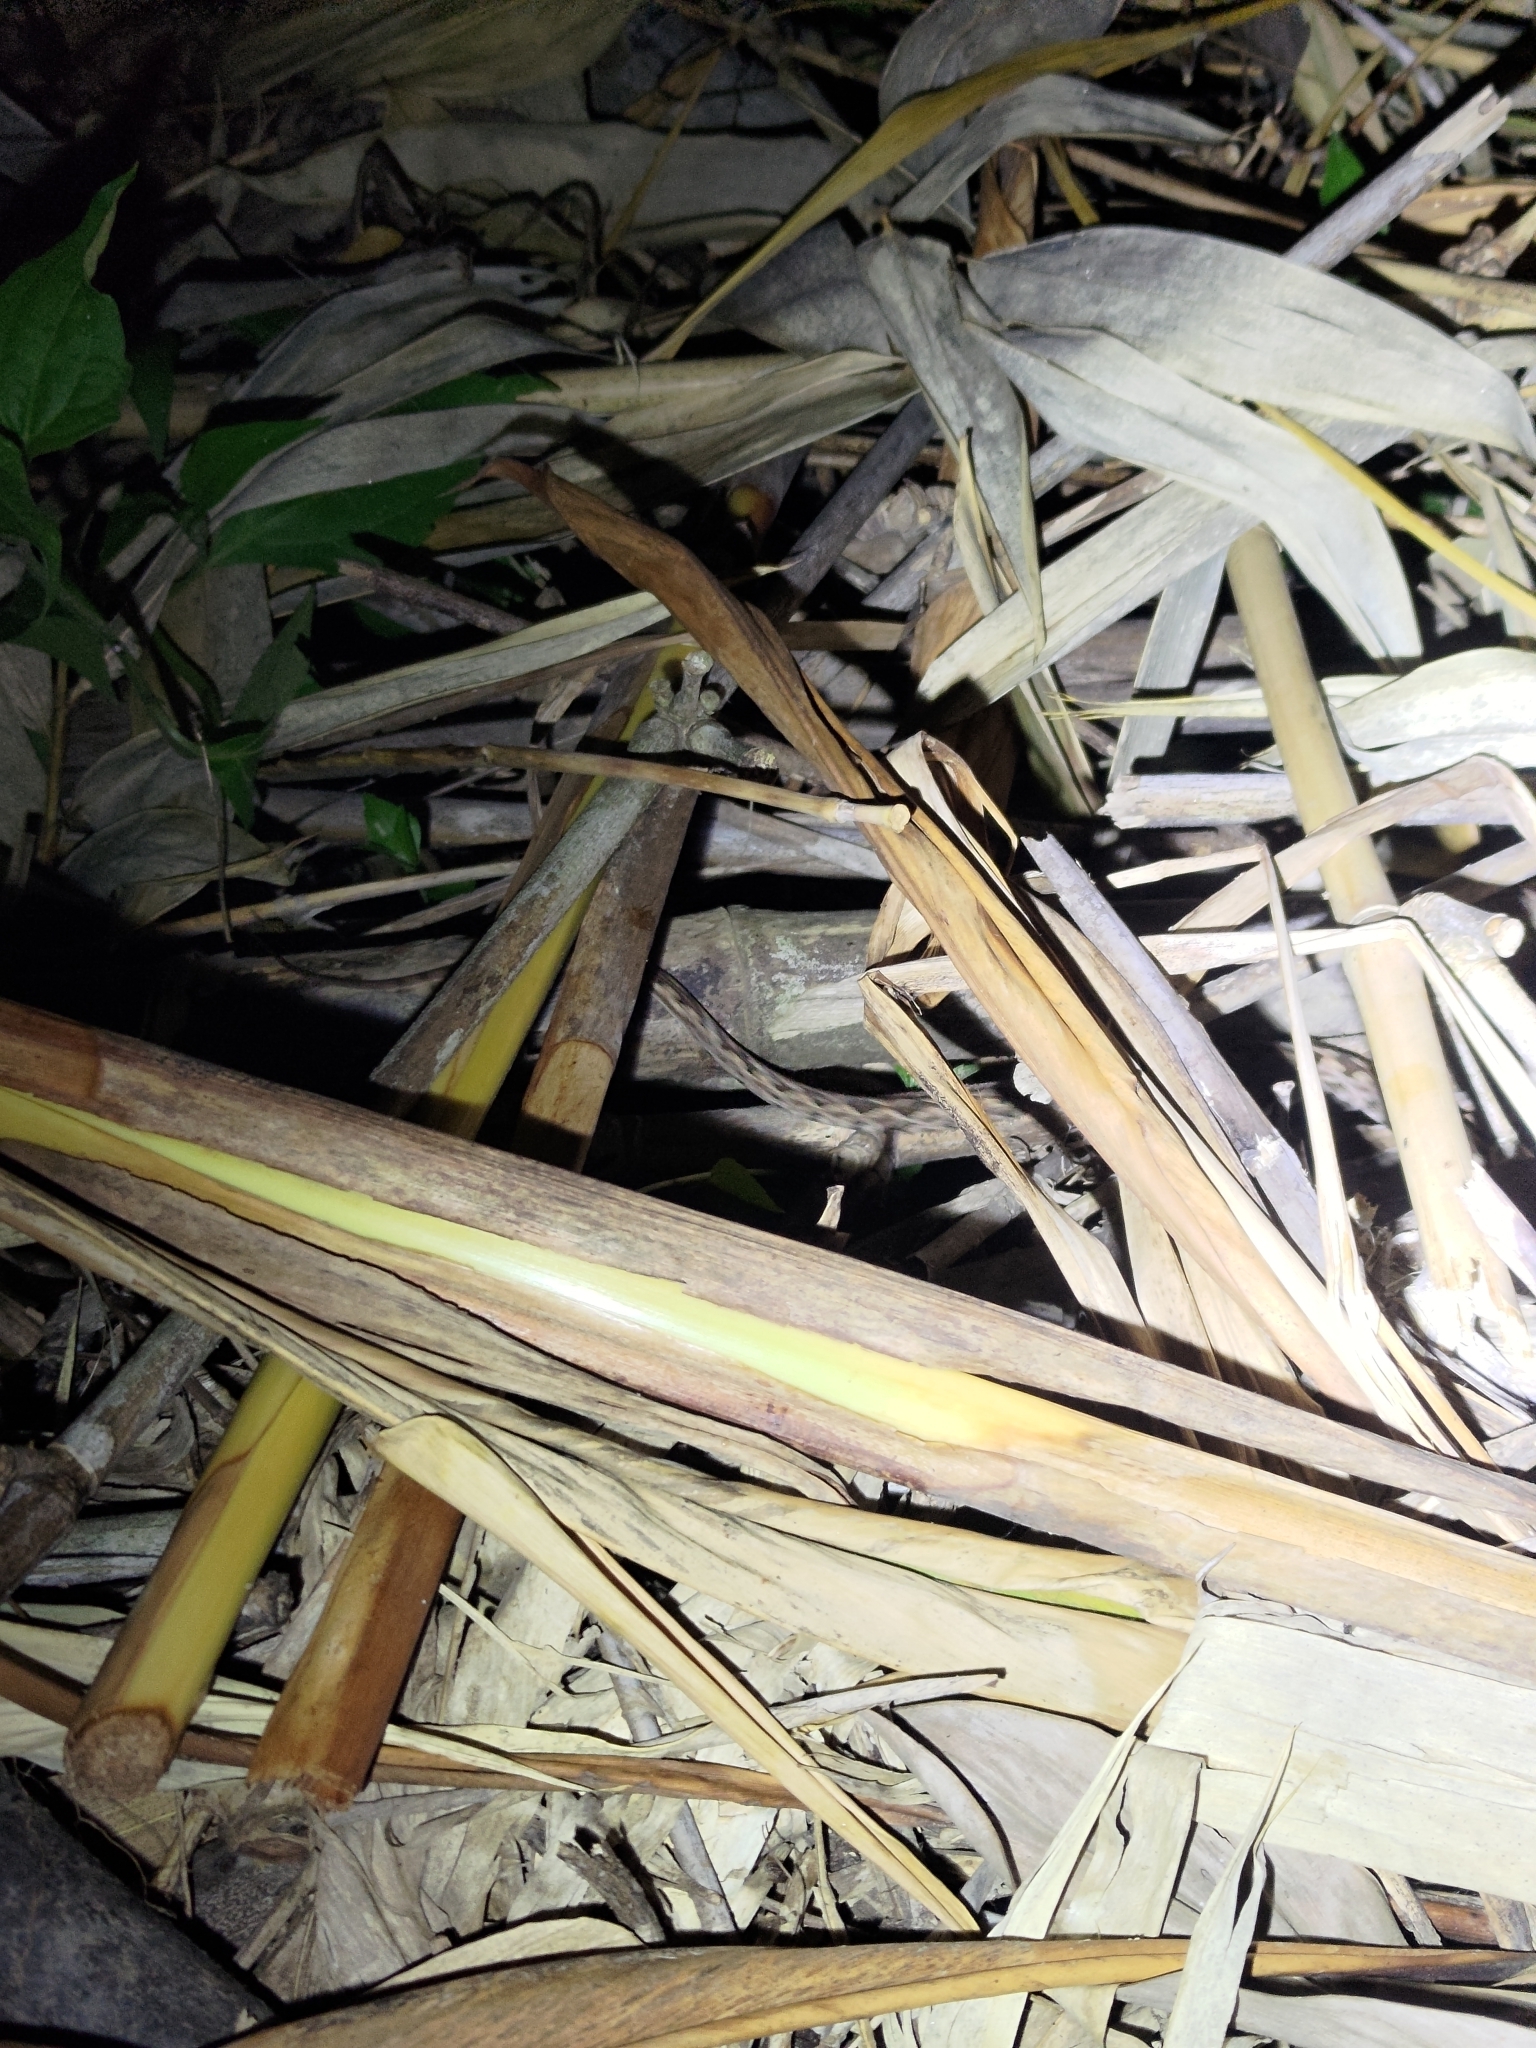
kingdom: Animalia
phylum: Chordata
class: Squamata
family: Viperidae
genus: Protobothrops
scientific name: Protobothrops mucrosquamatus
